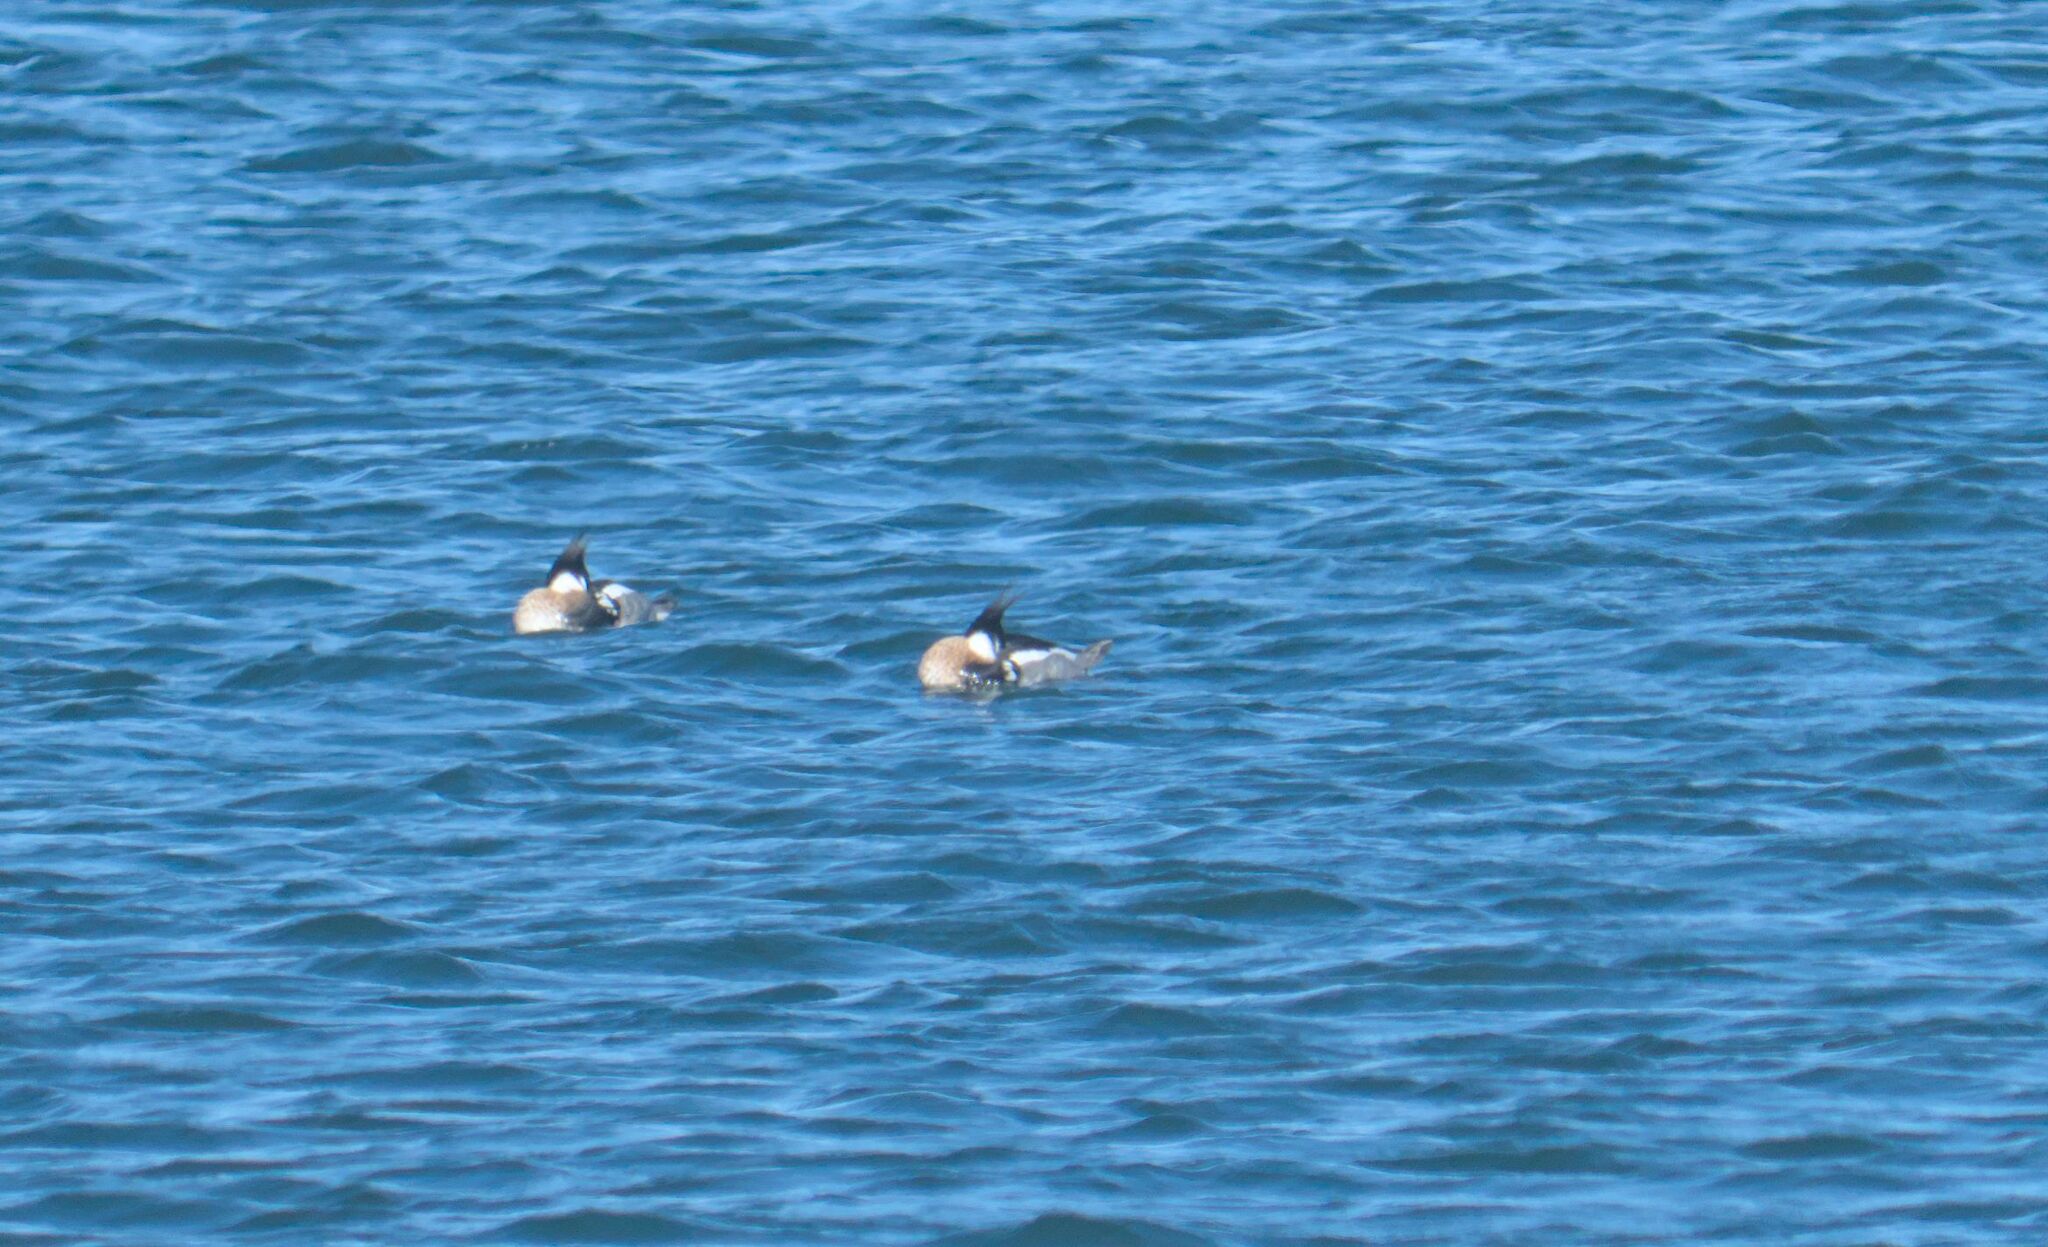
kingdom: Animalia
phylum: Chordata
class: Aves
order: Anseriformes
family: Anatidae
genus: Mergus
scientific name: Mergus serrator
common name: Red-breasted merganser
